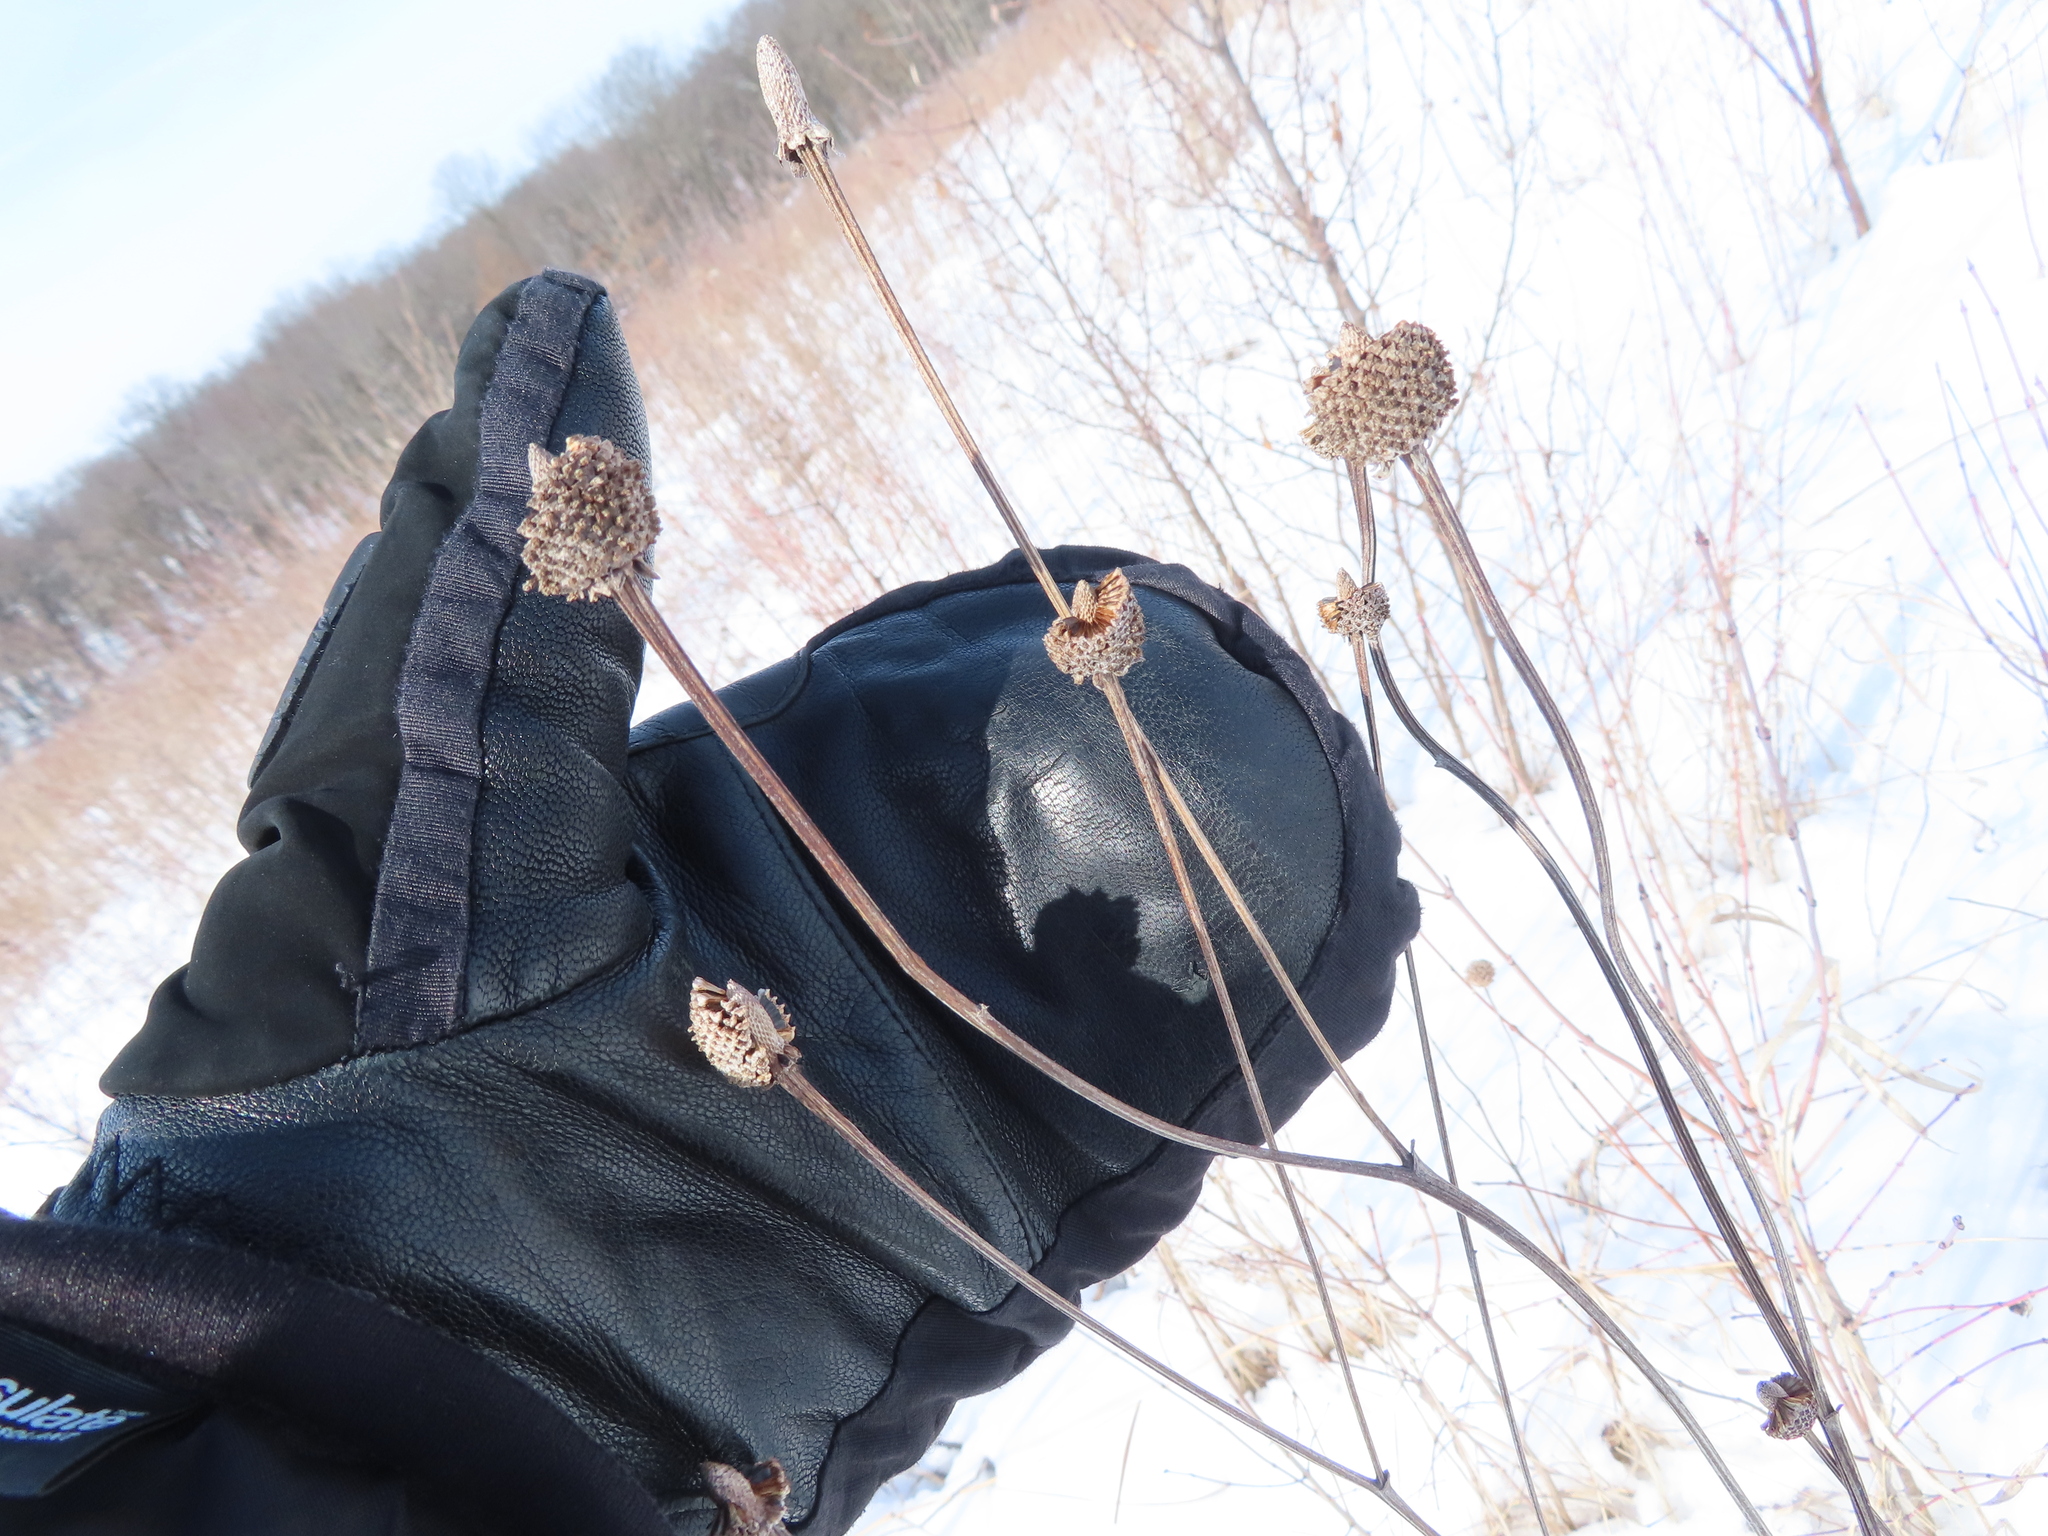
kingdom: Plantae
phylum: Tracheophyta
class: Magnoliopsida
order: Asterales
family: Asteraceae
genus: Ratibida
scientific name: Ratibida pinnata
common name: Drooping prairie-coneflower
